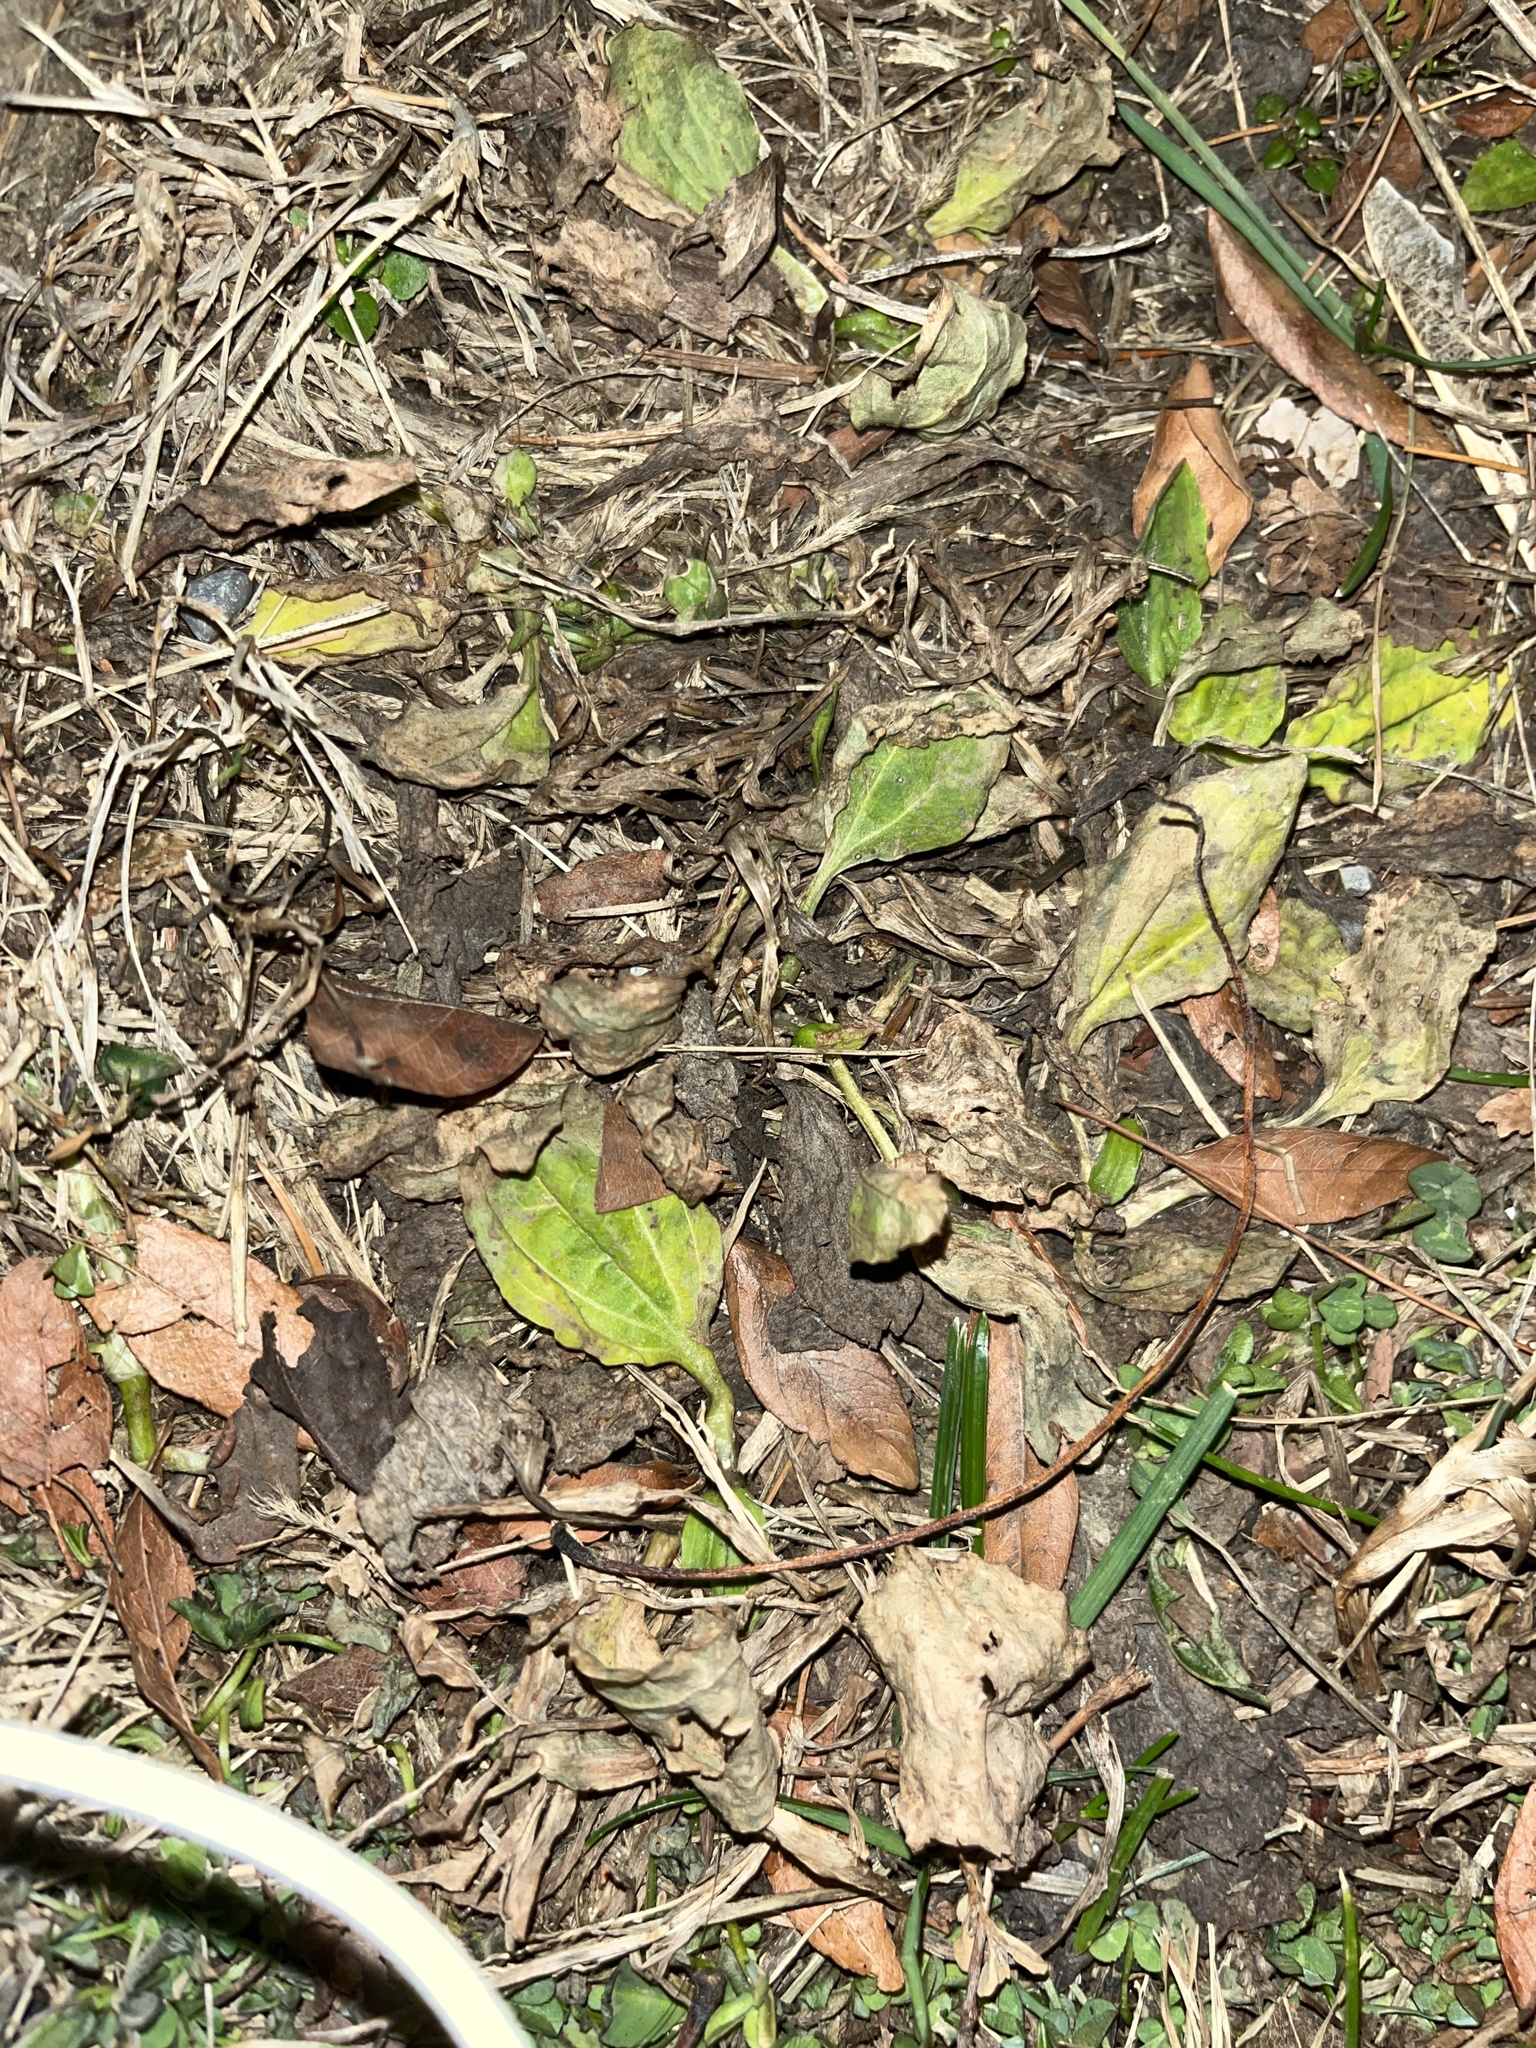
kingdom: Plantae
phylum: Tracheophyta
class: Magnoliopsida
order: Lamiales
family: Plantaginaceae
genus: Plantago
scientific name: Plantago major
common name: Common plantain
